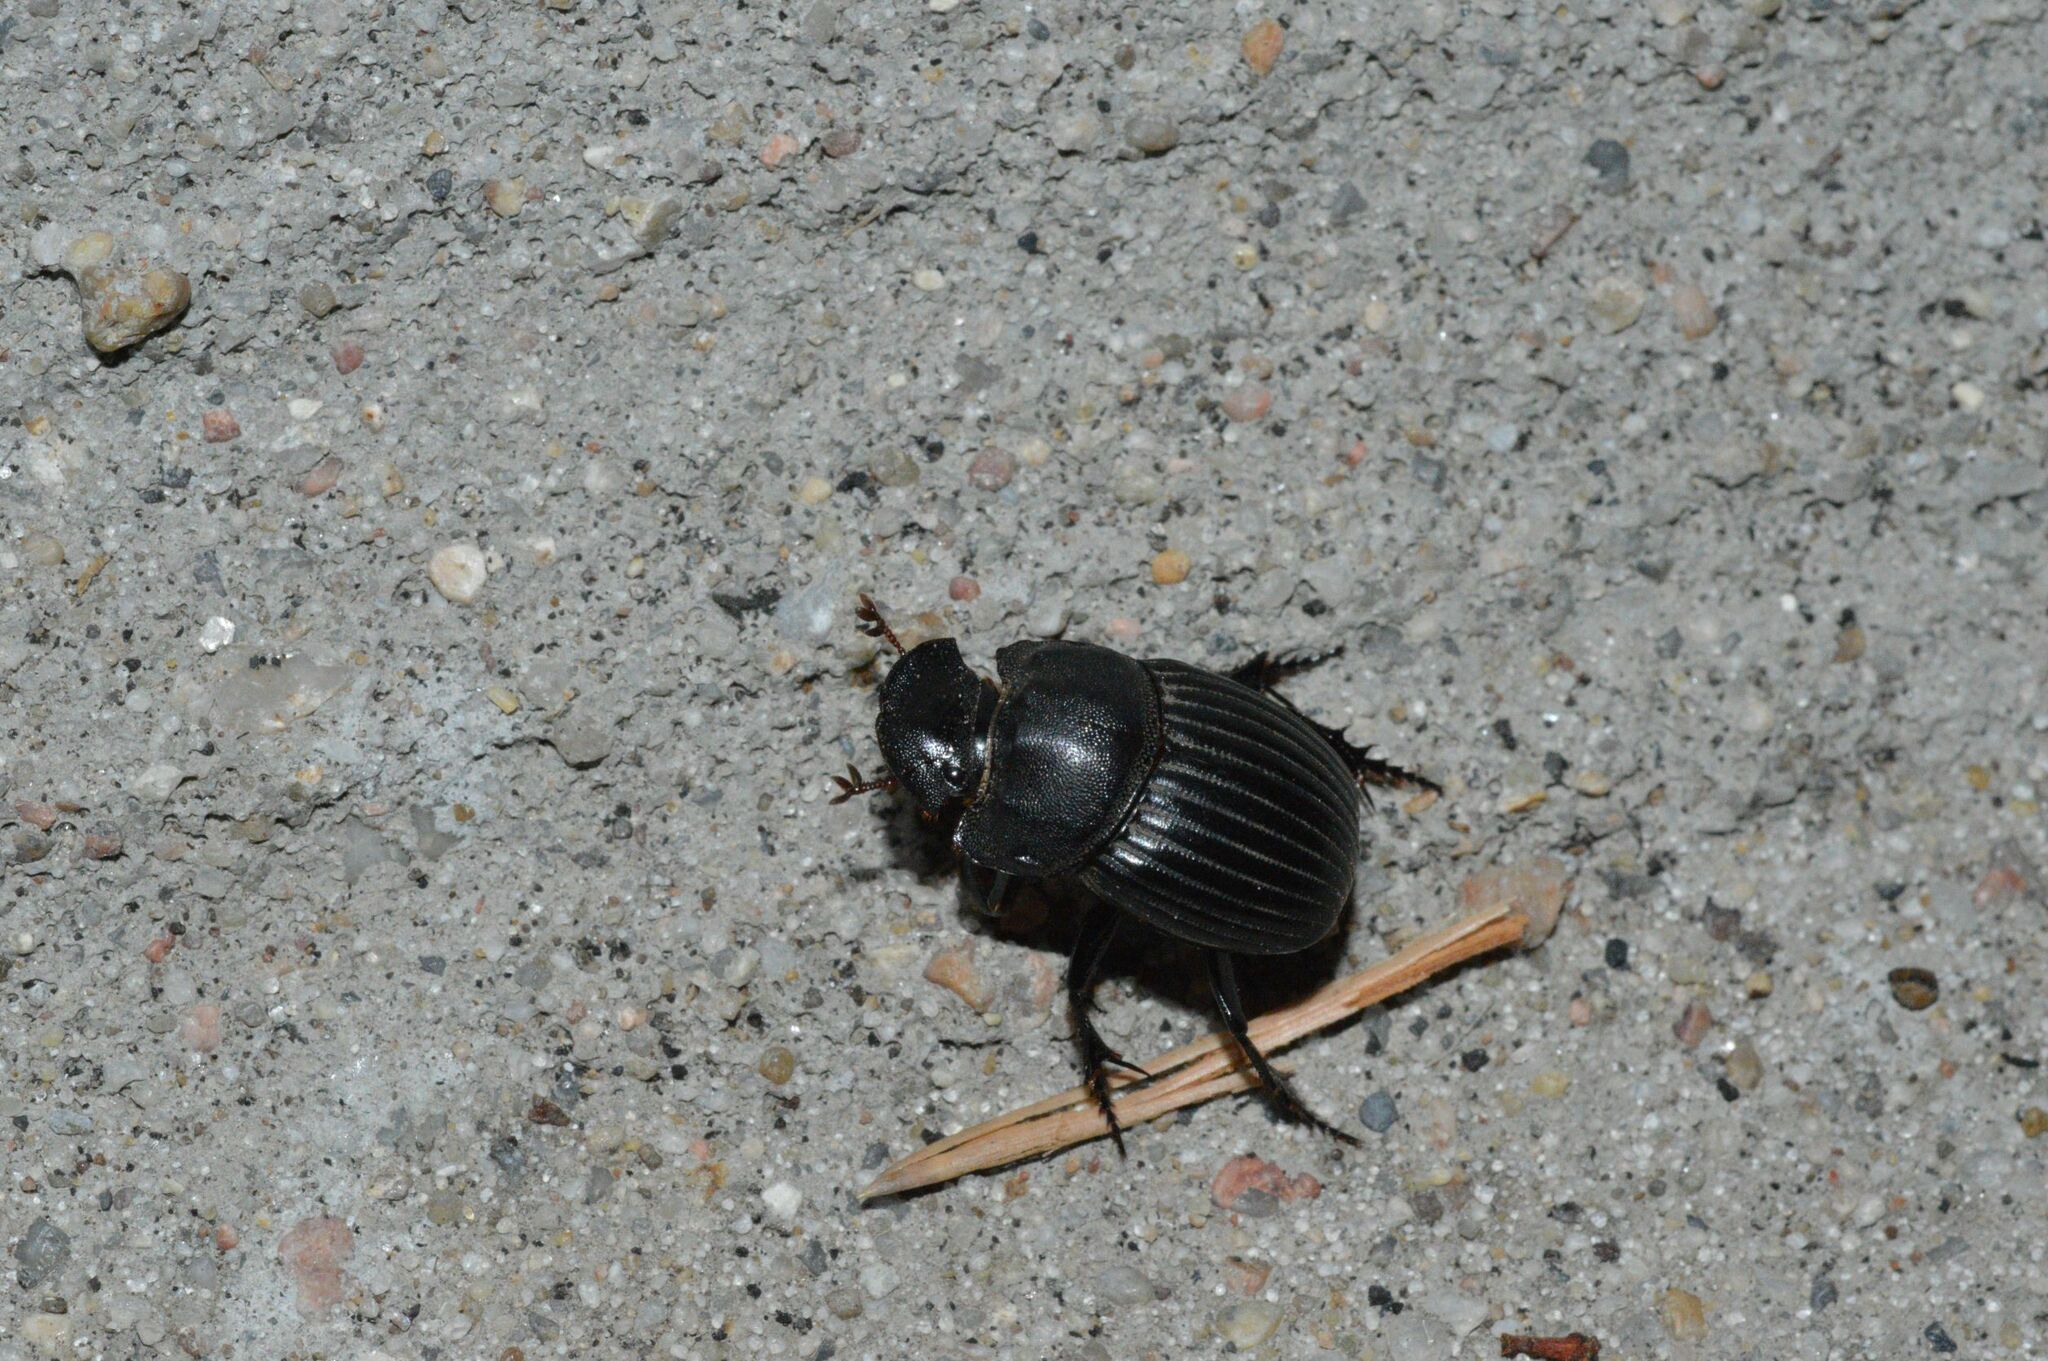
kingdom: Animalia
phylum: Arthropoda
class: Insecta
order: Coleoptera
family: Scarabaeidae
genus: Copris
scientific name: Copris fricator
